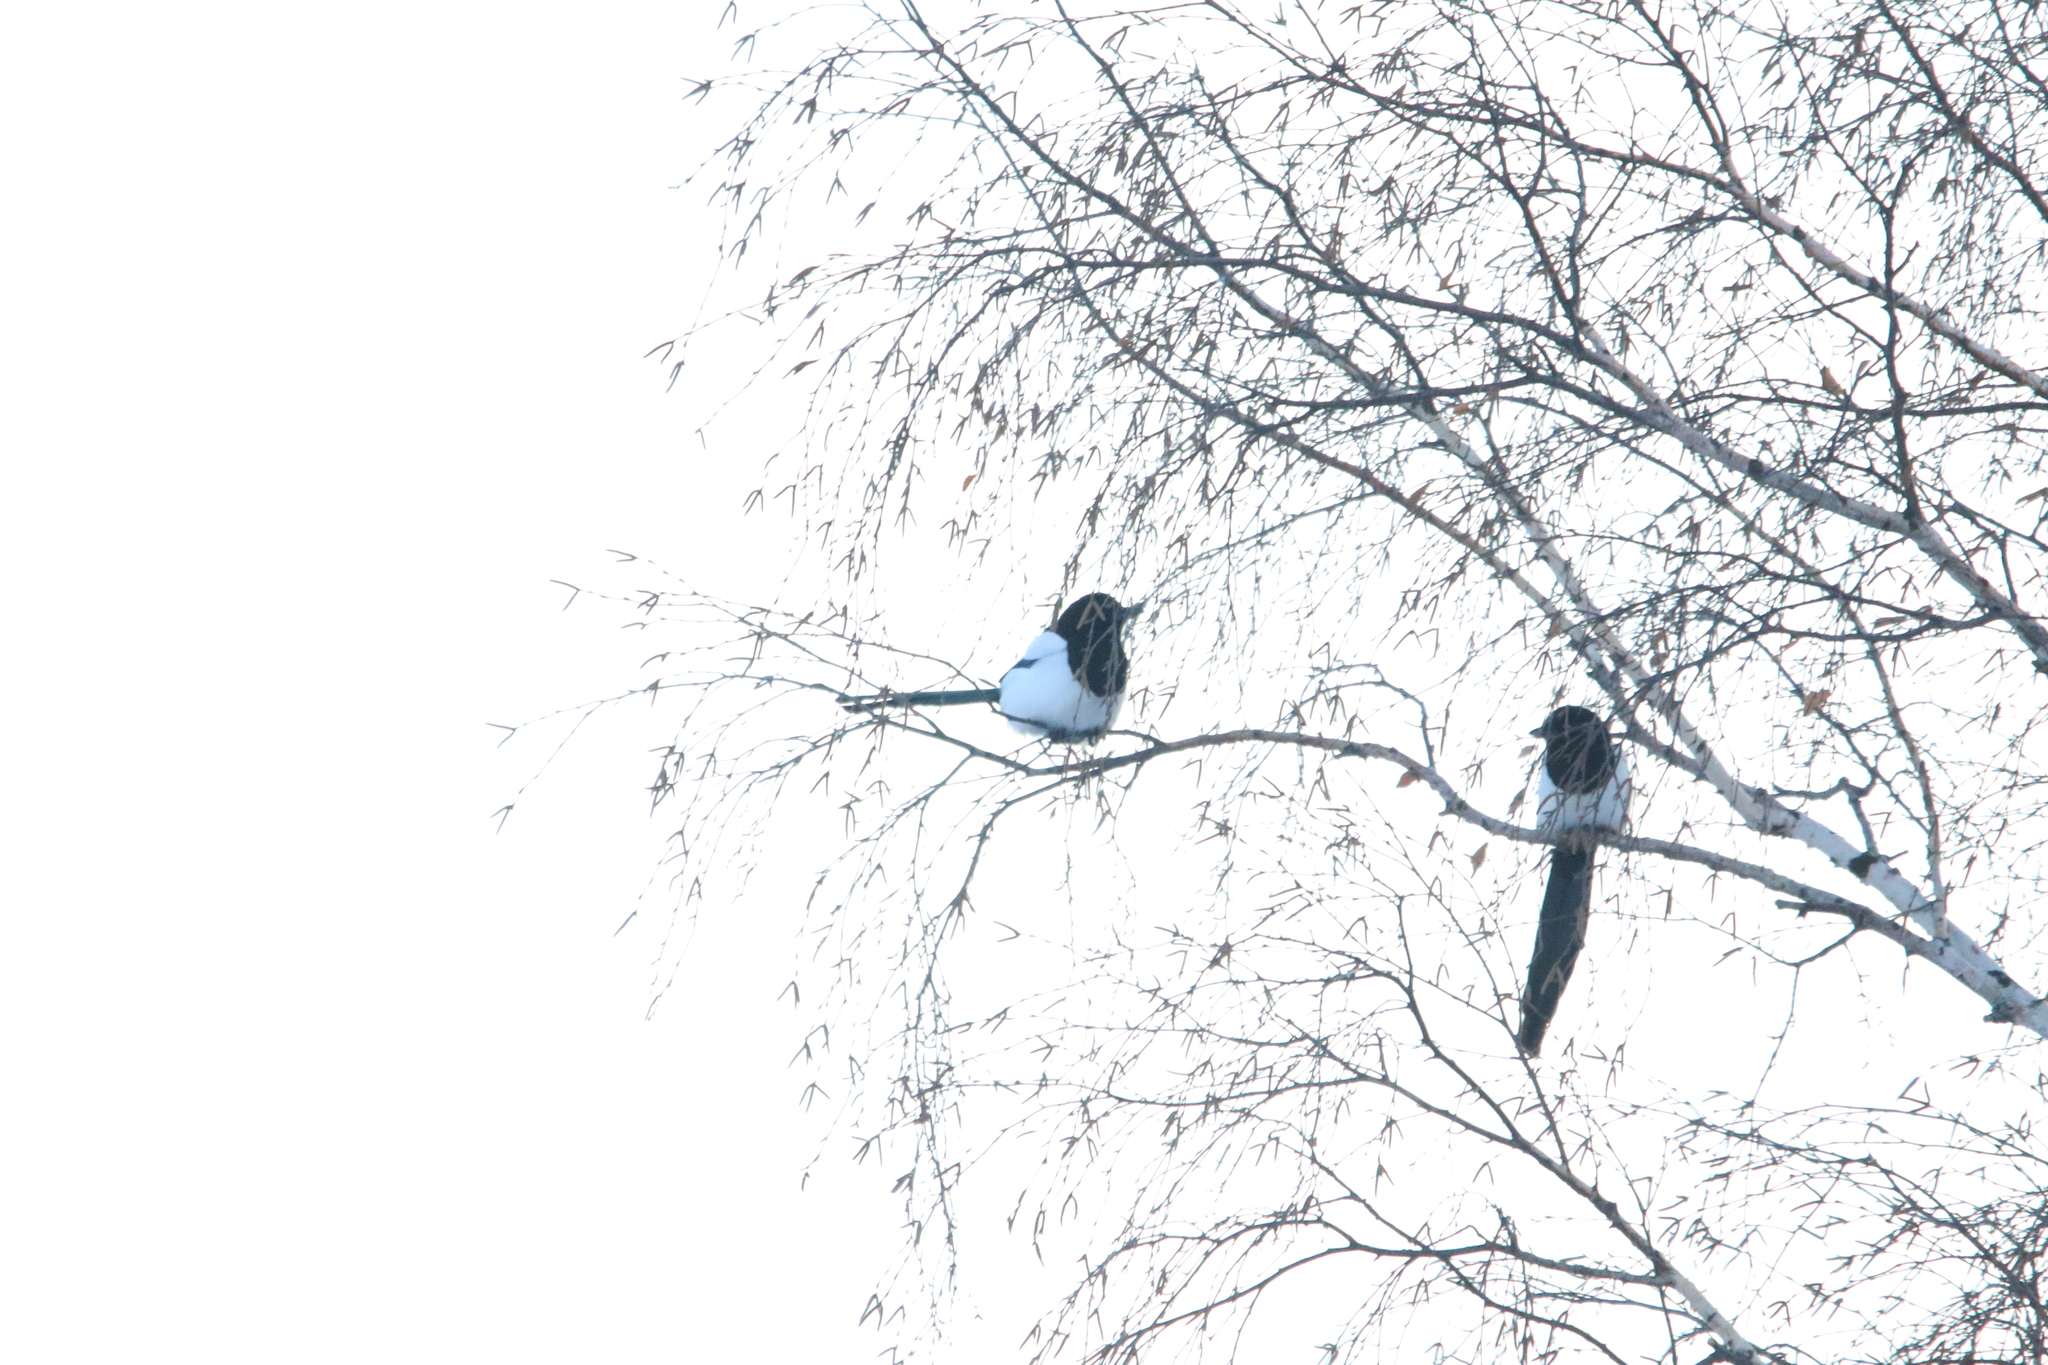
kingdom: Animalia
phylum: Chordata
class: Aves
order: Passeriformes
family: Corvidae
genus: Pica
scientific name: Pica pica
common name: Eurasian magpie
